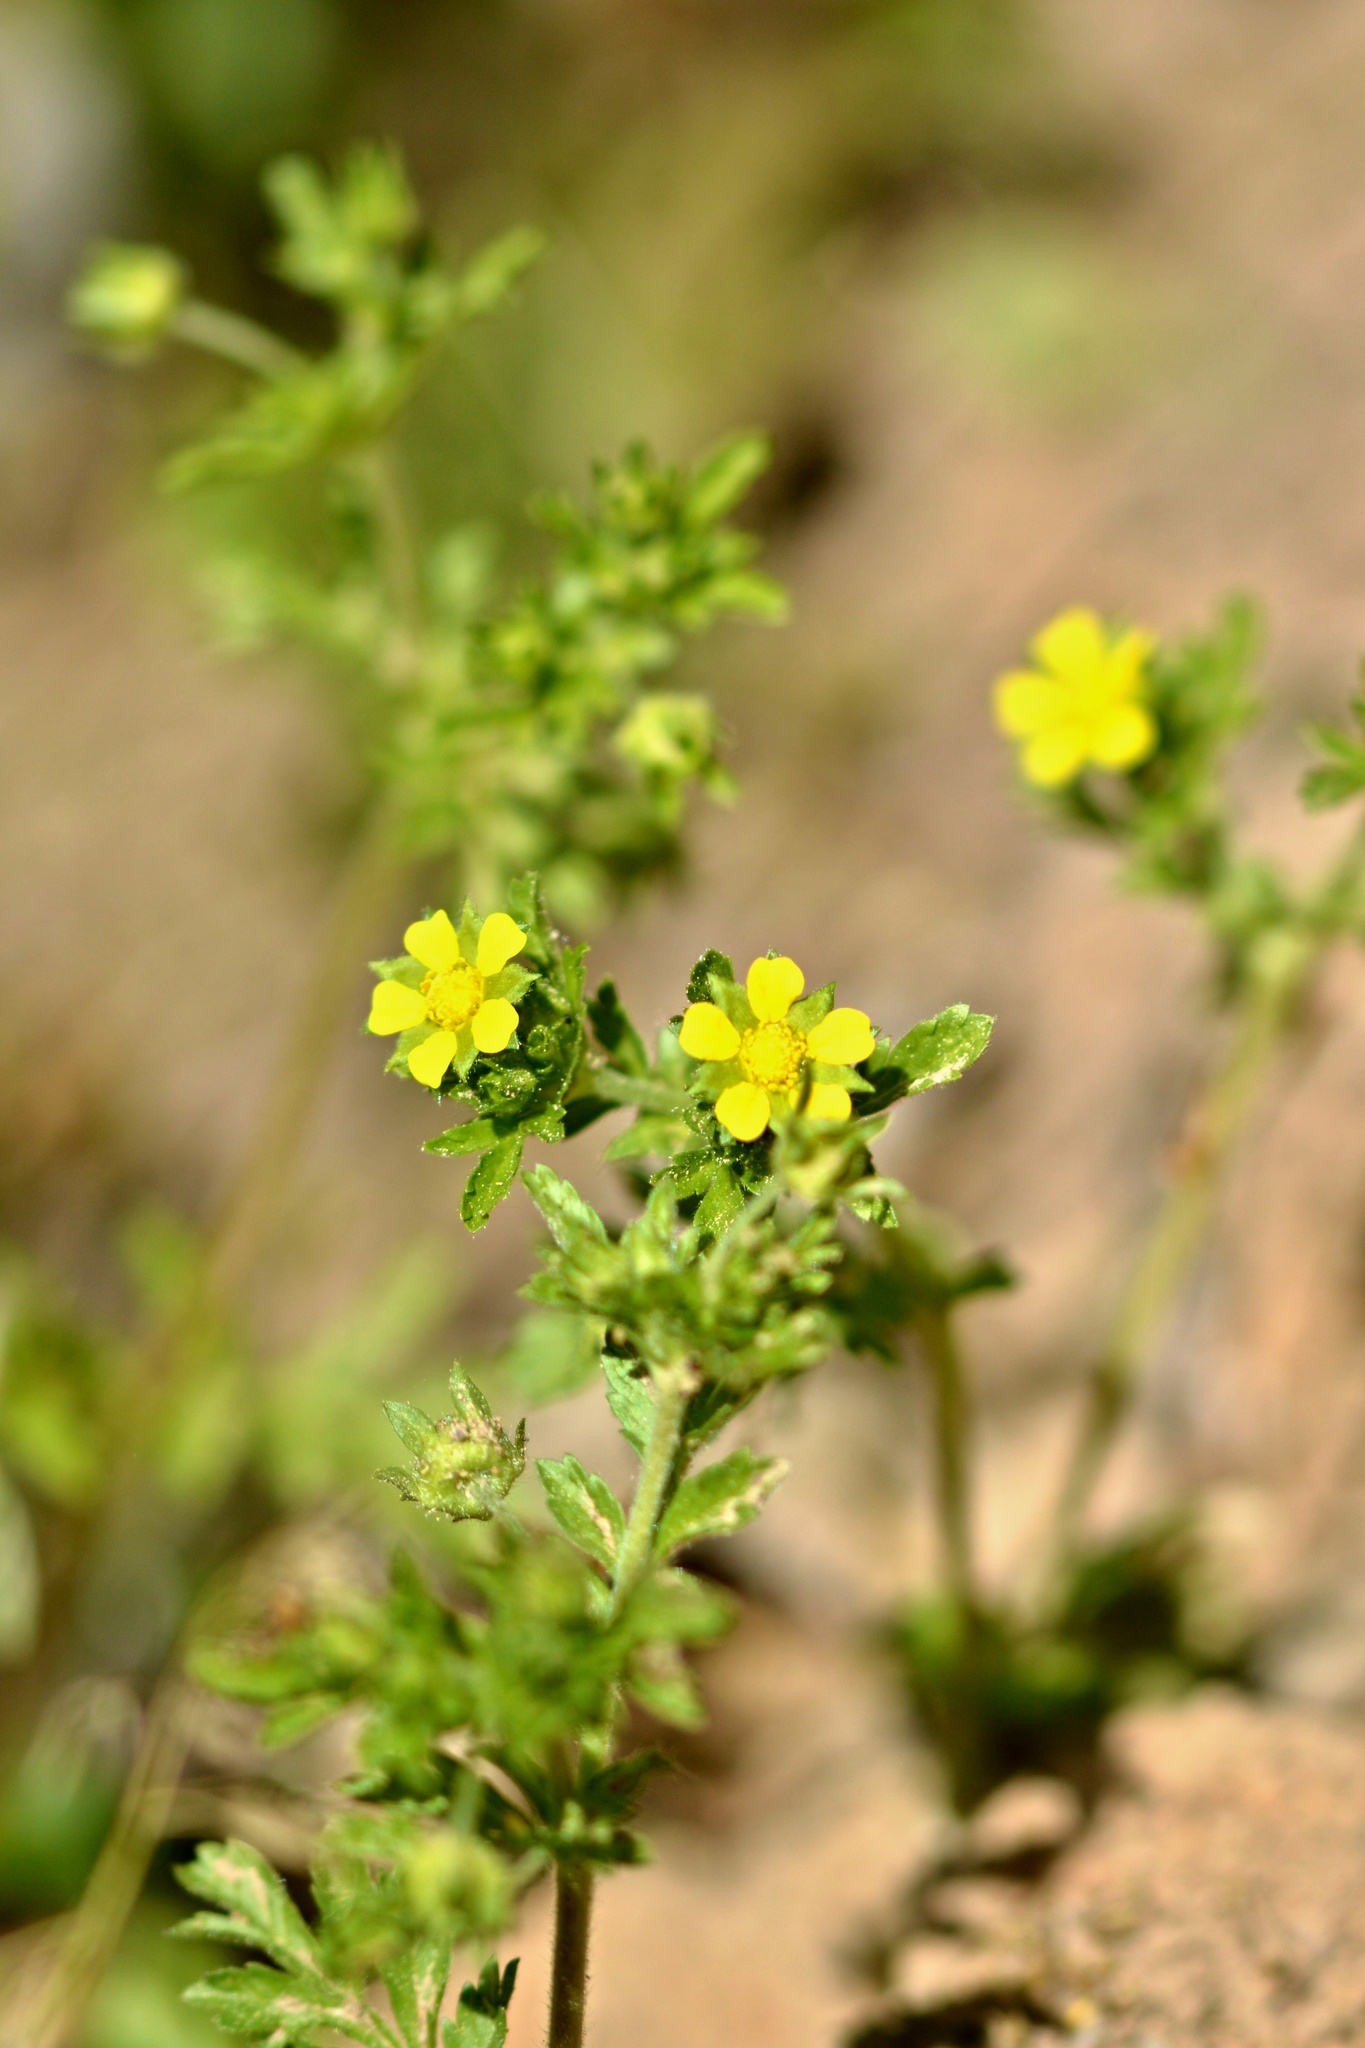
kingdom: Plantae
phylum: Tracheophyta
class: Magnoliopsida
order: Rosales
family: Rosaceae
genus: Potentilla
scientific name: Potentilla supina
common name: Prostrate cinquefoil
